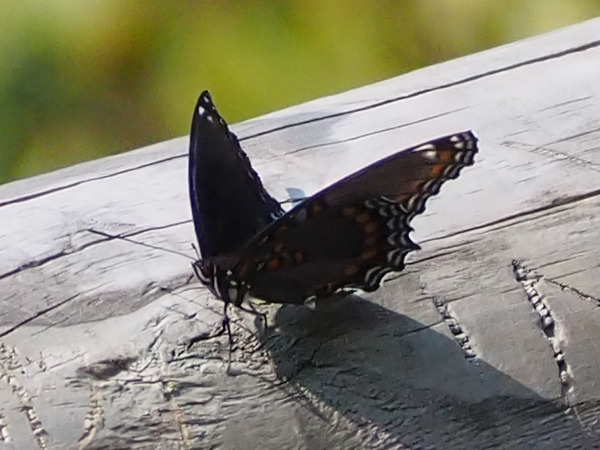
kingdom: Animalia
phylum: Arthropoda
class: Insecta
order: Lepidoptera
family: Nymphalidae
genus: Limenitis
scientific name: Limenitis astyanax
